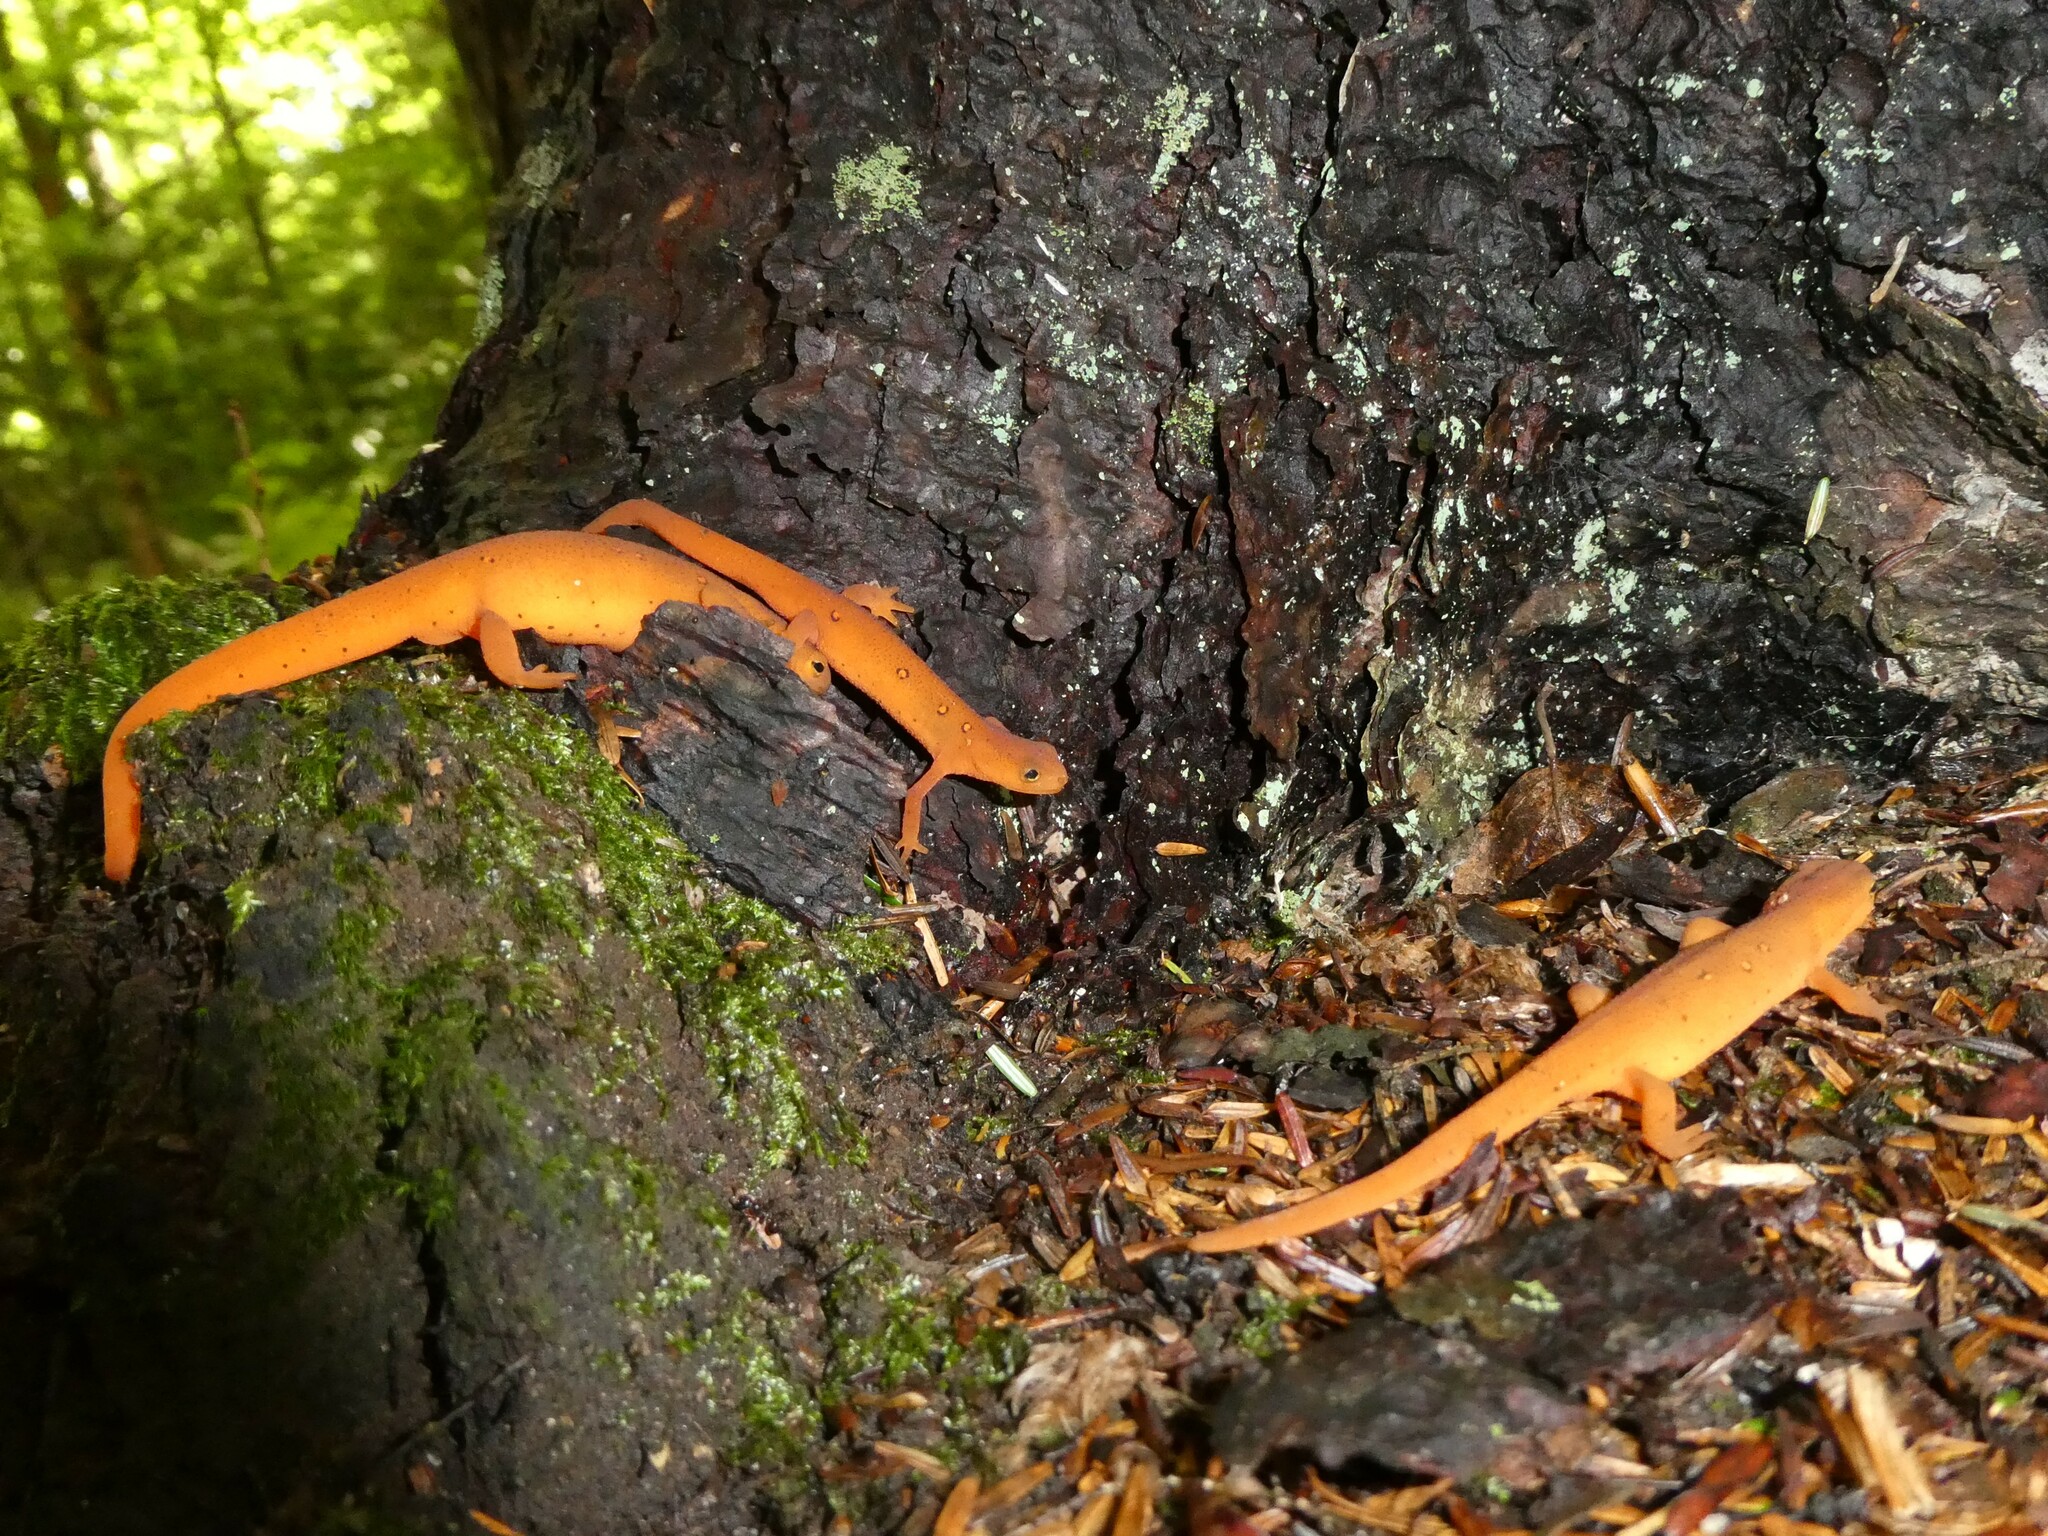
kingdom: Animalia
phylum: Chordata
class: Amphibia
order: Caudata
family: Salamandridae
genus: Notophthalmus
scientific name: Notophthalmus viridescens
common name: Eastern newt
